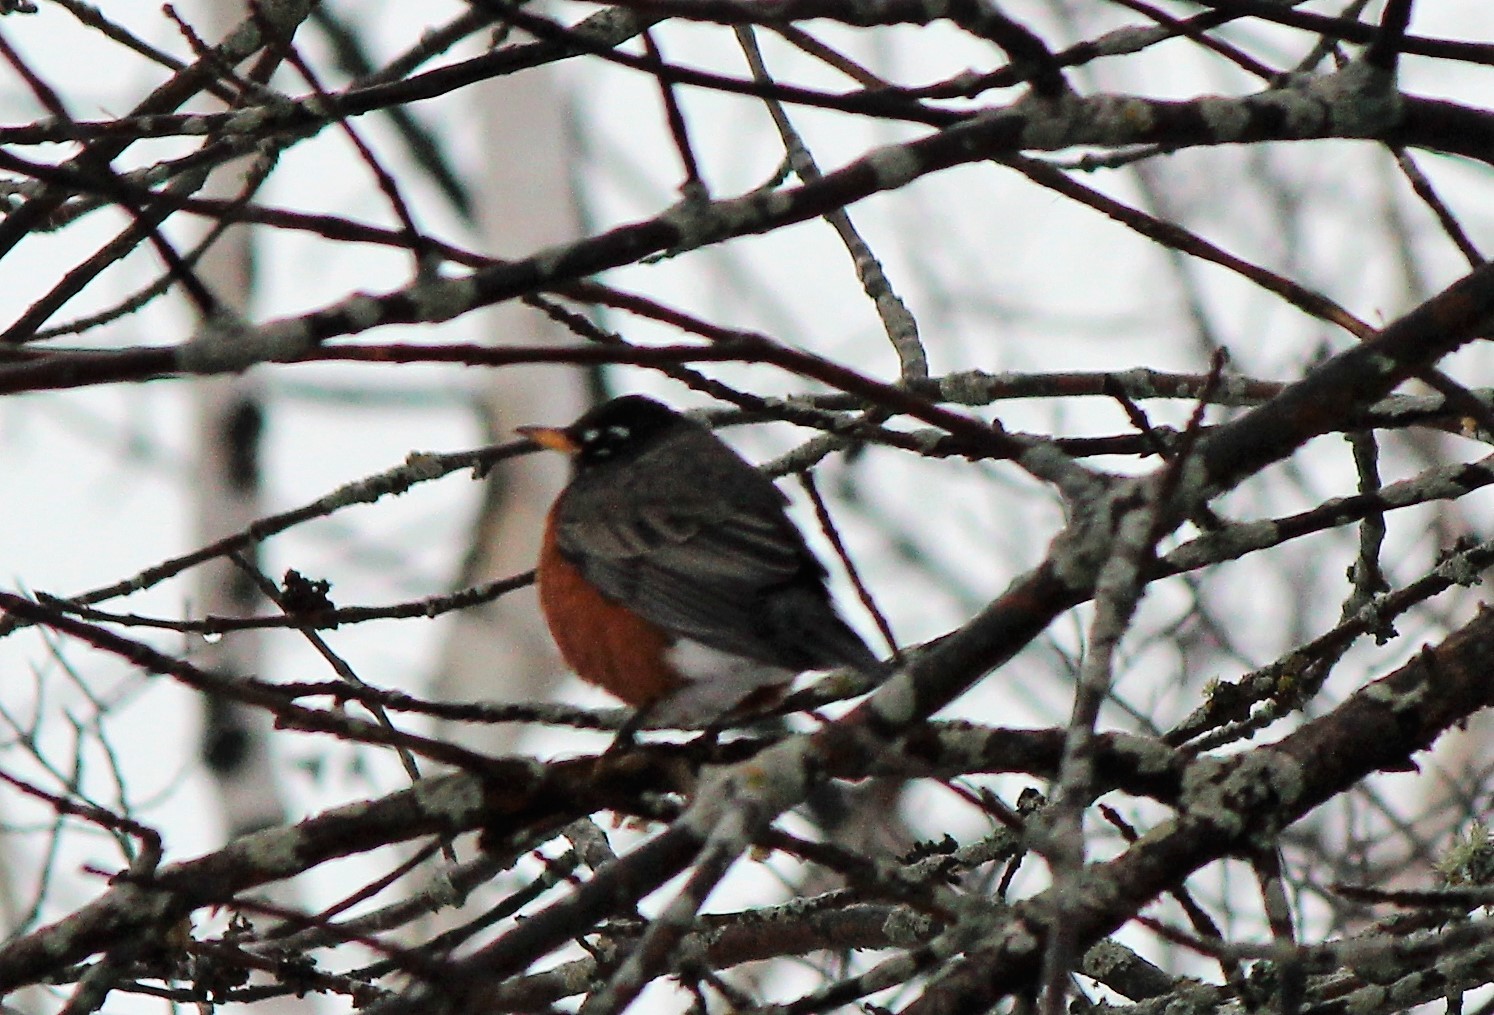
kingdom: Animalia
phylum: Chordata
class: Aves
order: Passeriformes
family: Turdidae
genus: Turdus
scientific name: Turdus migratorius
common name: American robin
